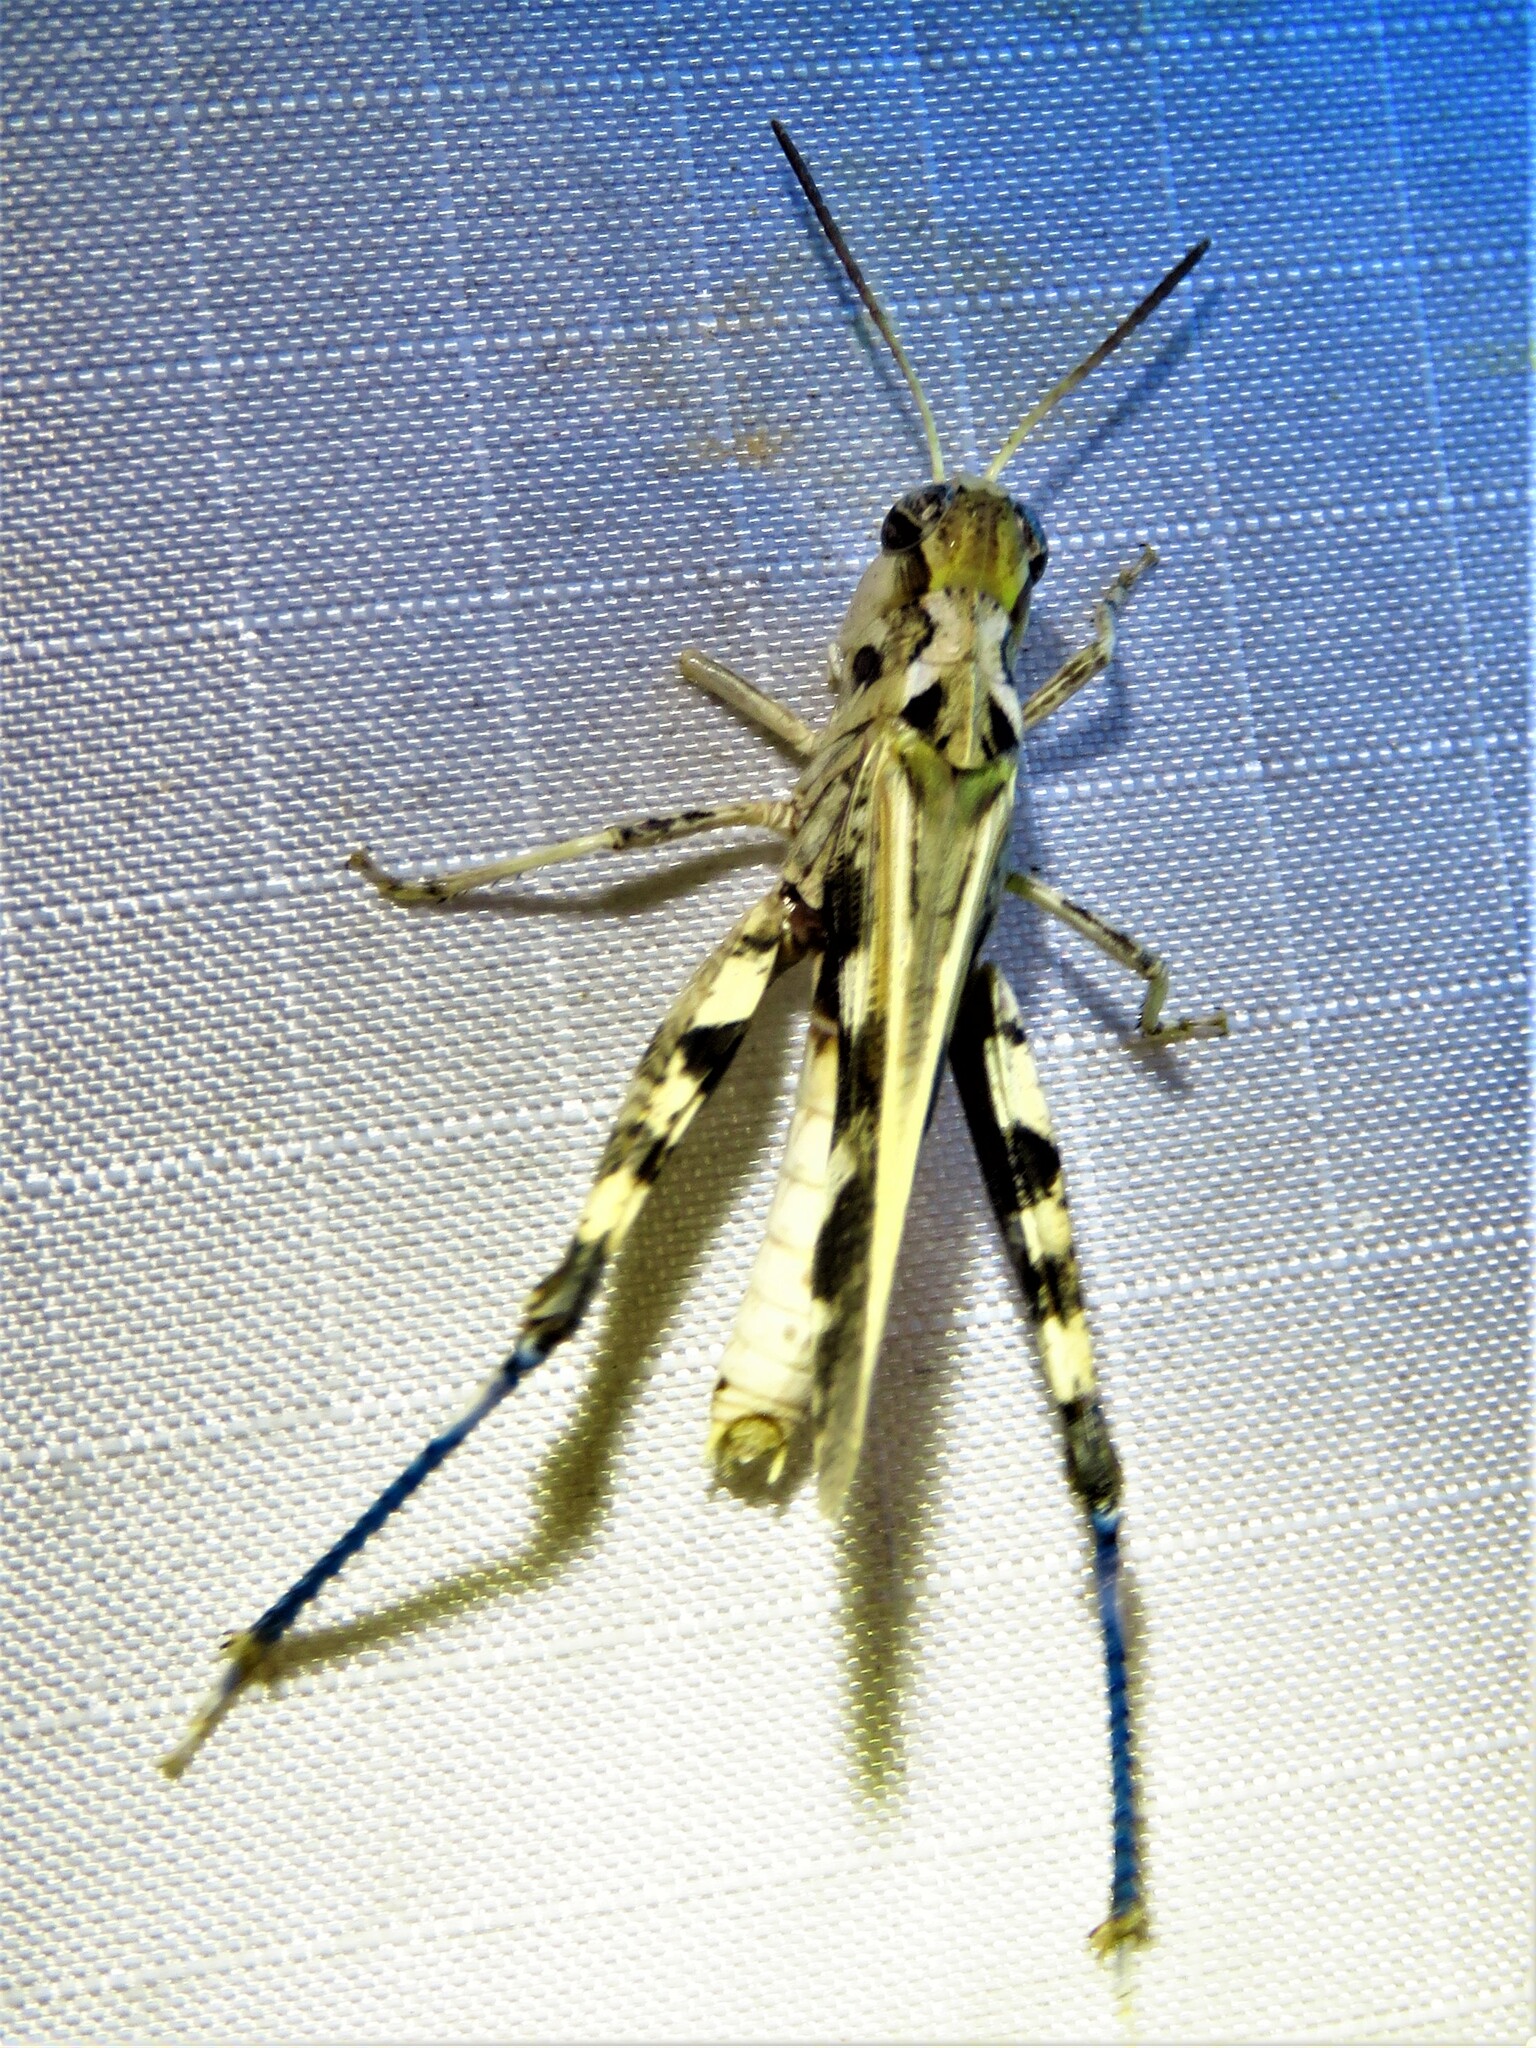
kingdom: Animalia
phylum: Arthropoda
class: Insecta
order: Orthoptera
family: Acrididae
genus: Encoptolophus
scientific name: Encoptolophus costalis
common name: Dusky grasshopper
